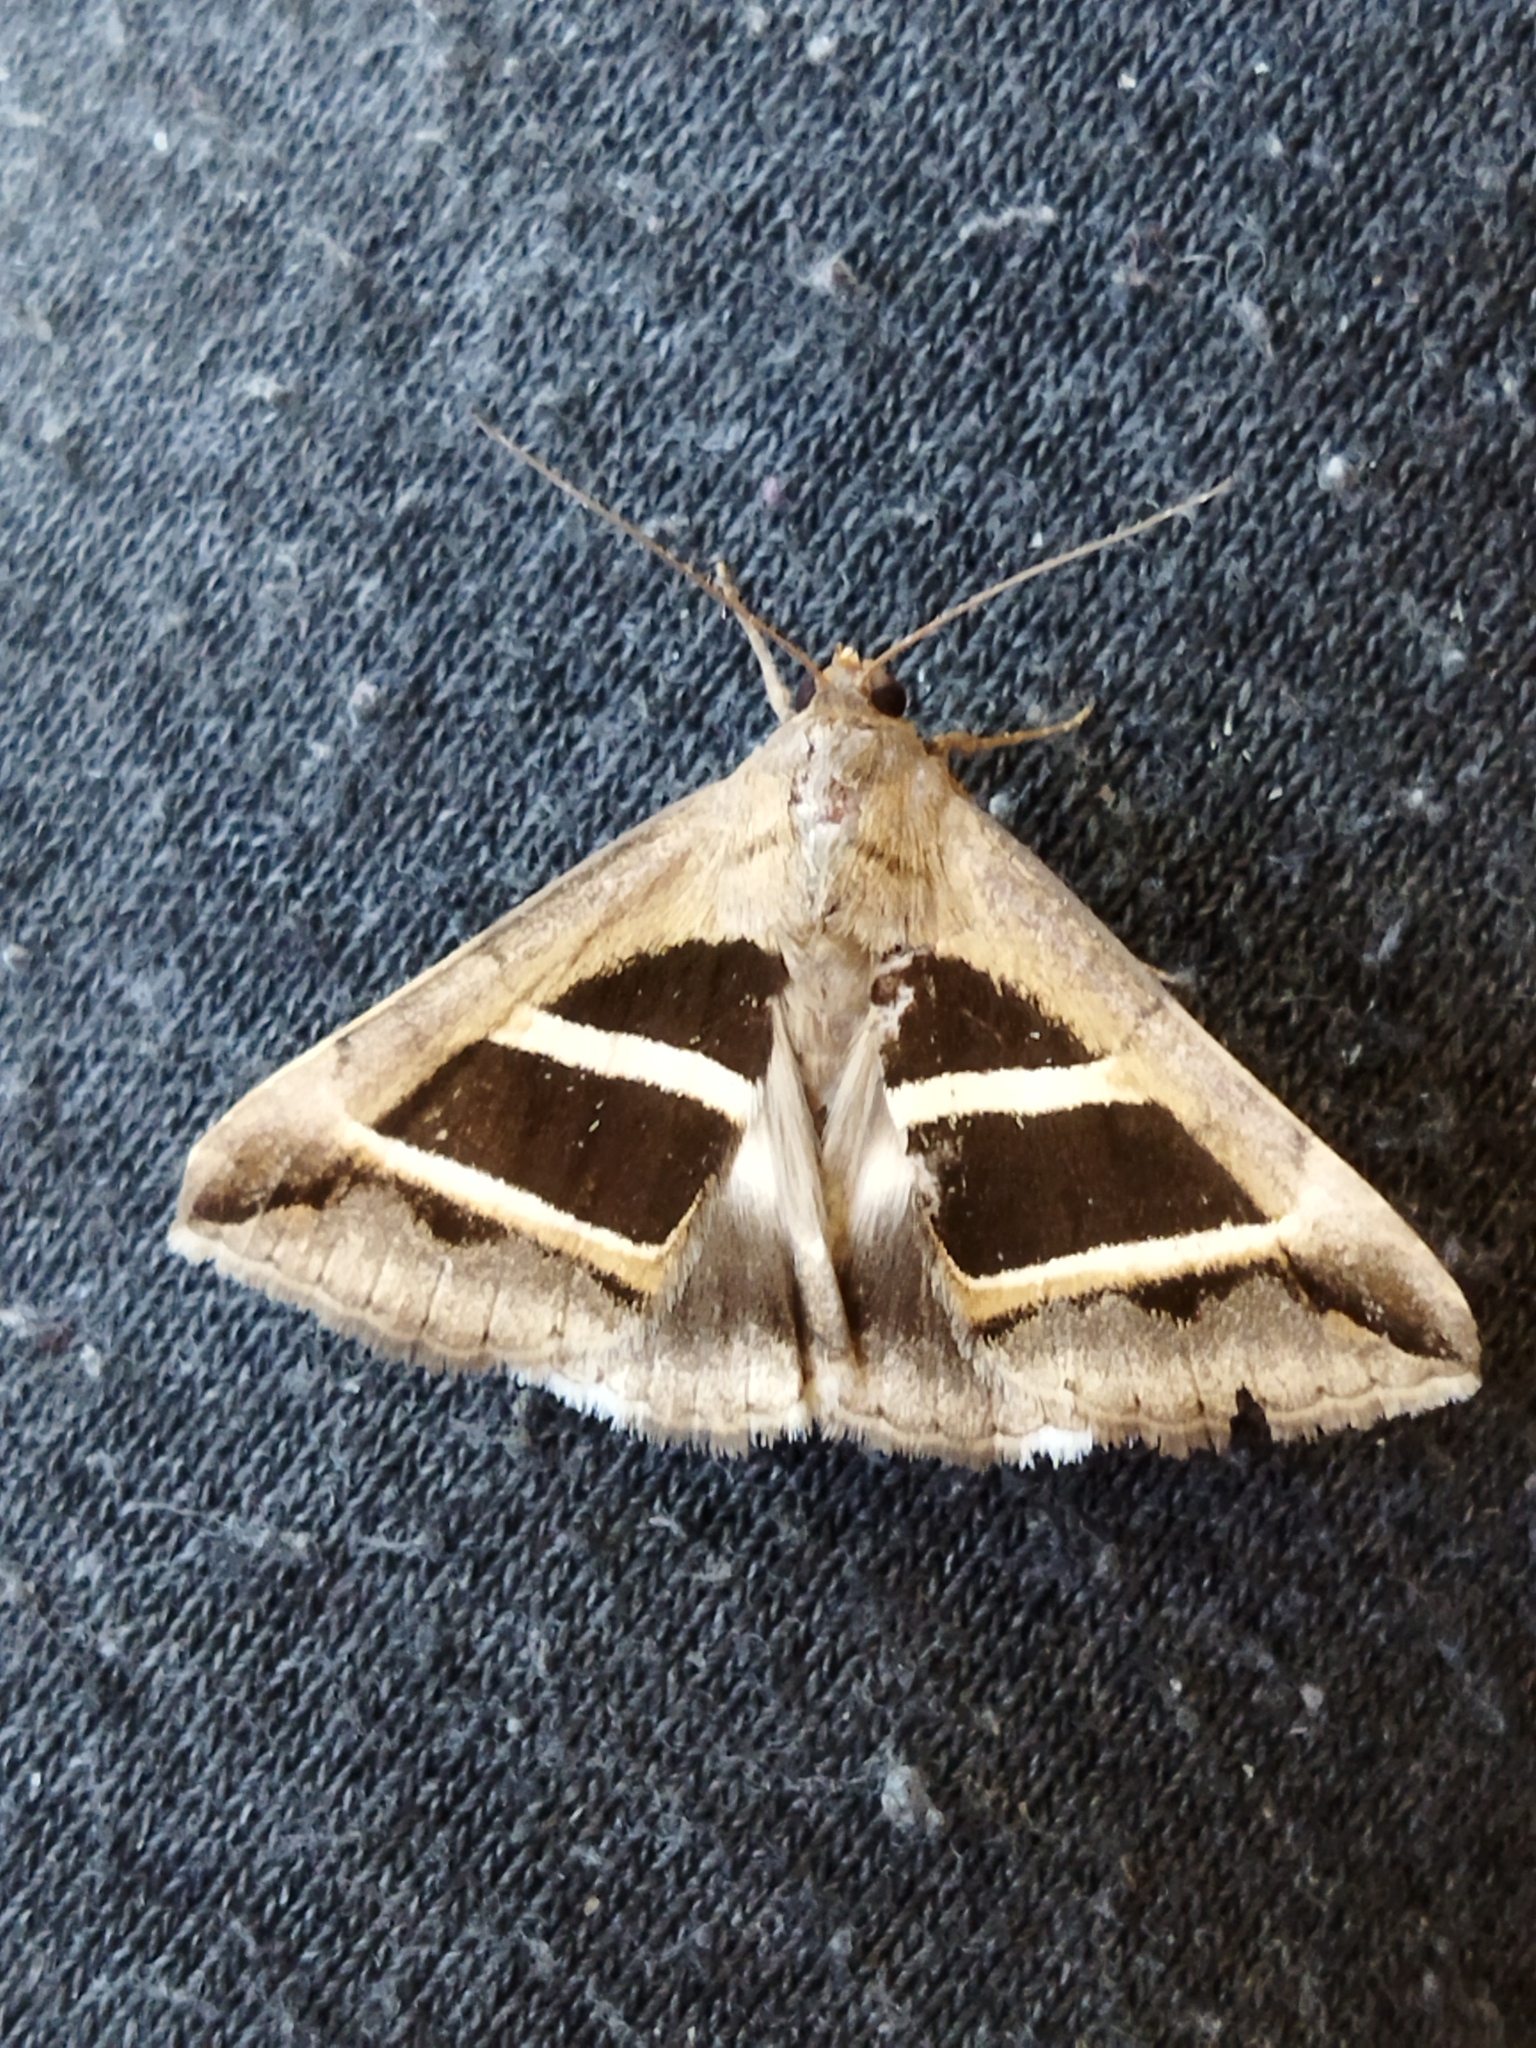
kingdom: Animalia
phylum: Arthropoda
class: Insecta
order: Lepidoptera
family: Erebidae
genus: Grammodes
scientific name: Grammodes bifasciata
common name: Parallel lines
